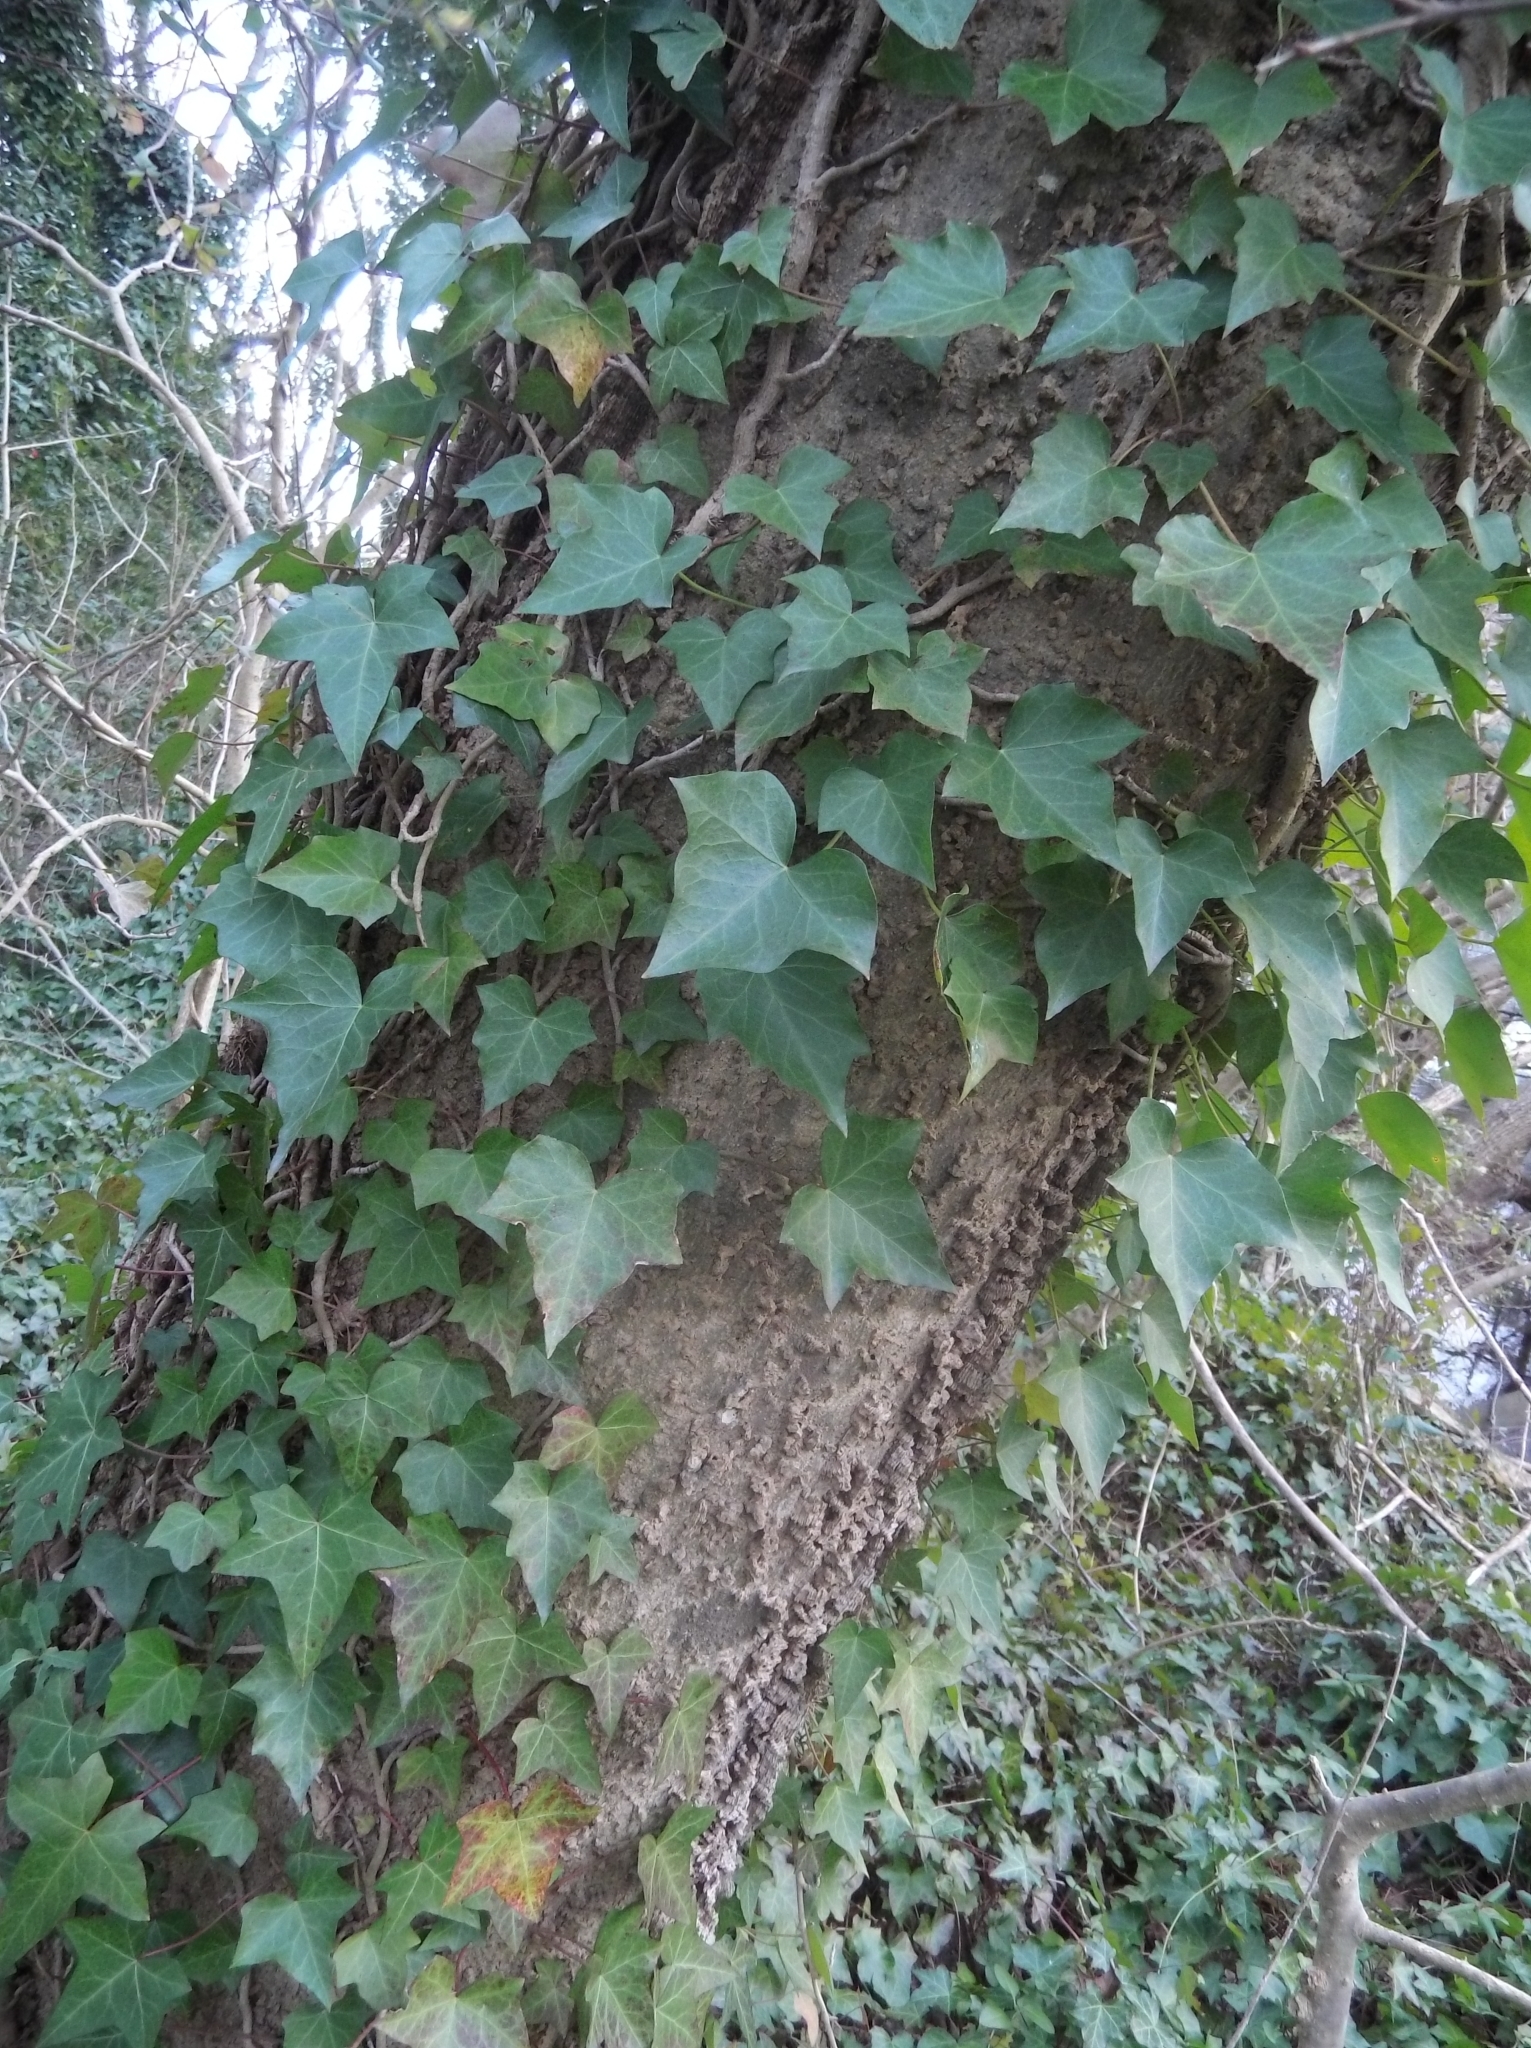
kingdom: Plantae
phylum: Tracheophyta
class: Magnoliopsida
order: Apiales
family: Araliaceae
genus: Hedera
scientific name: Hedera helix
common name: Ivy
